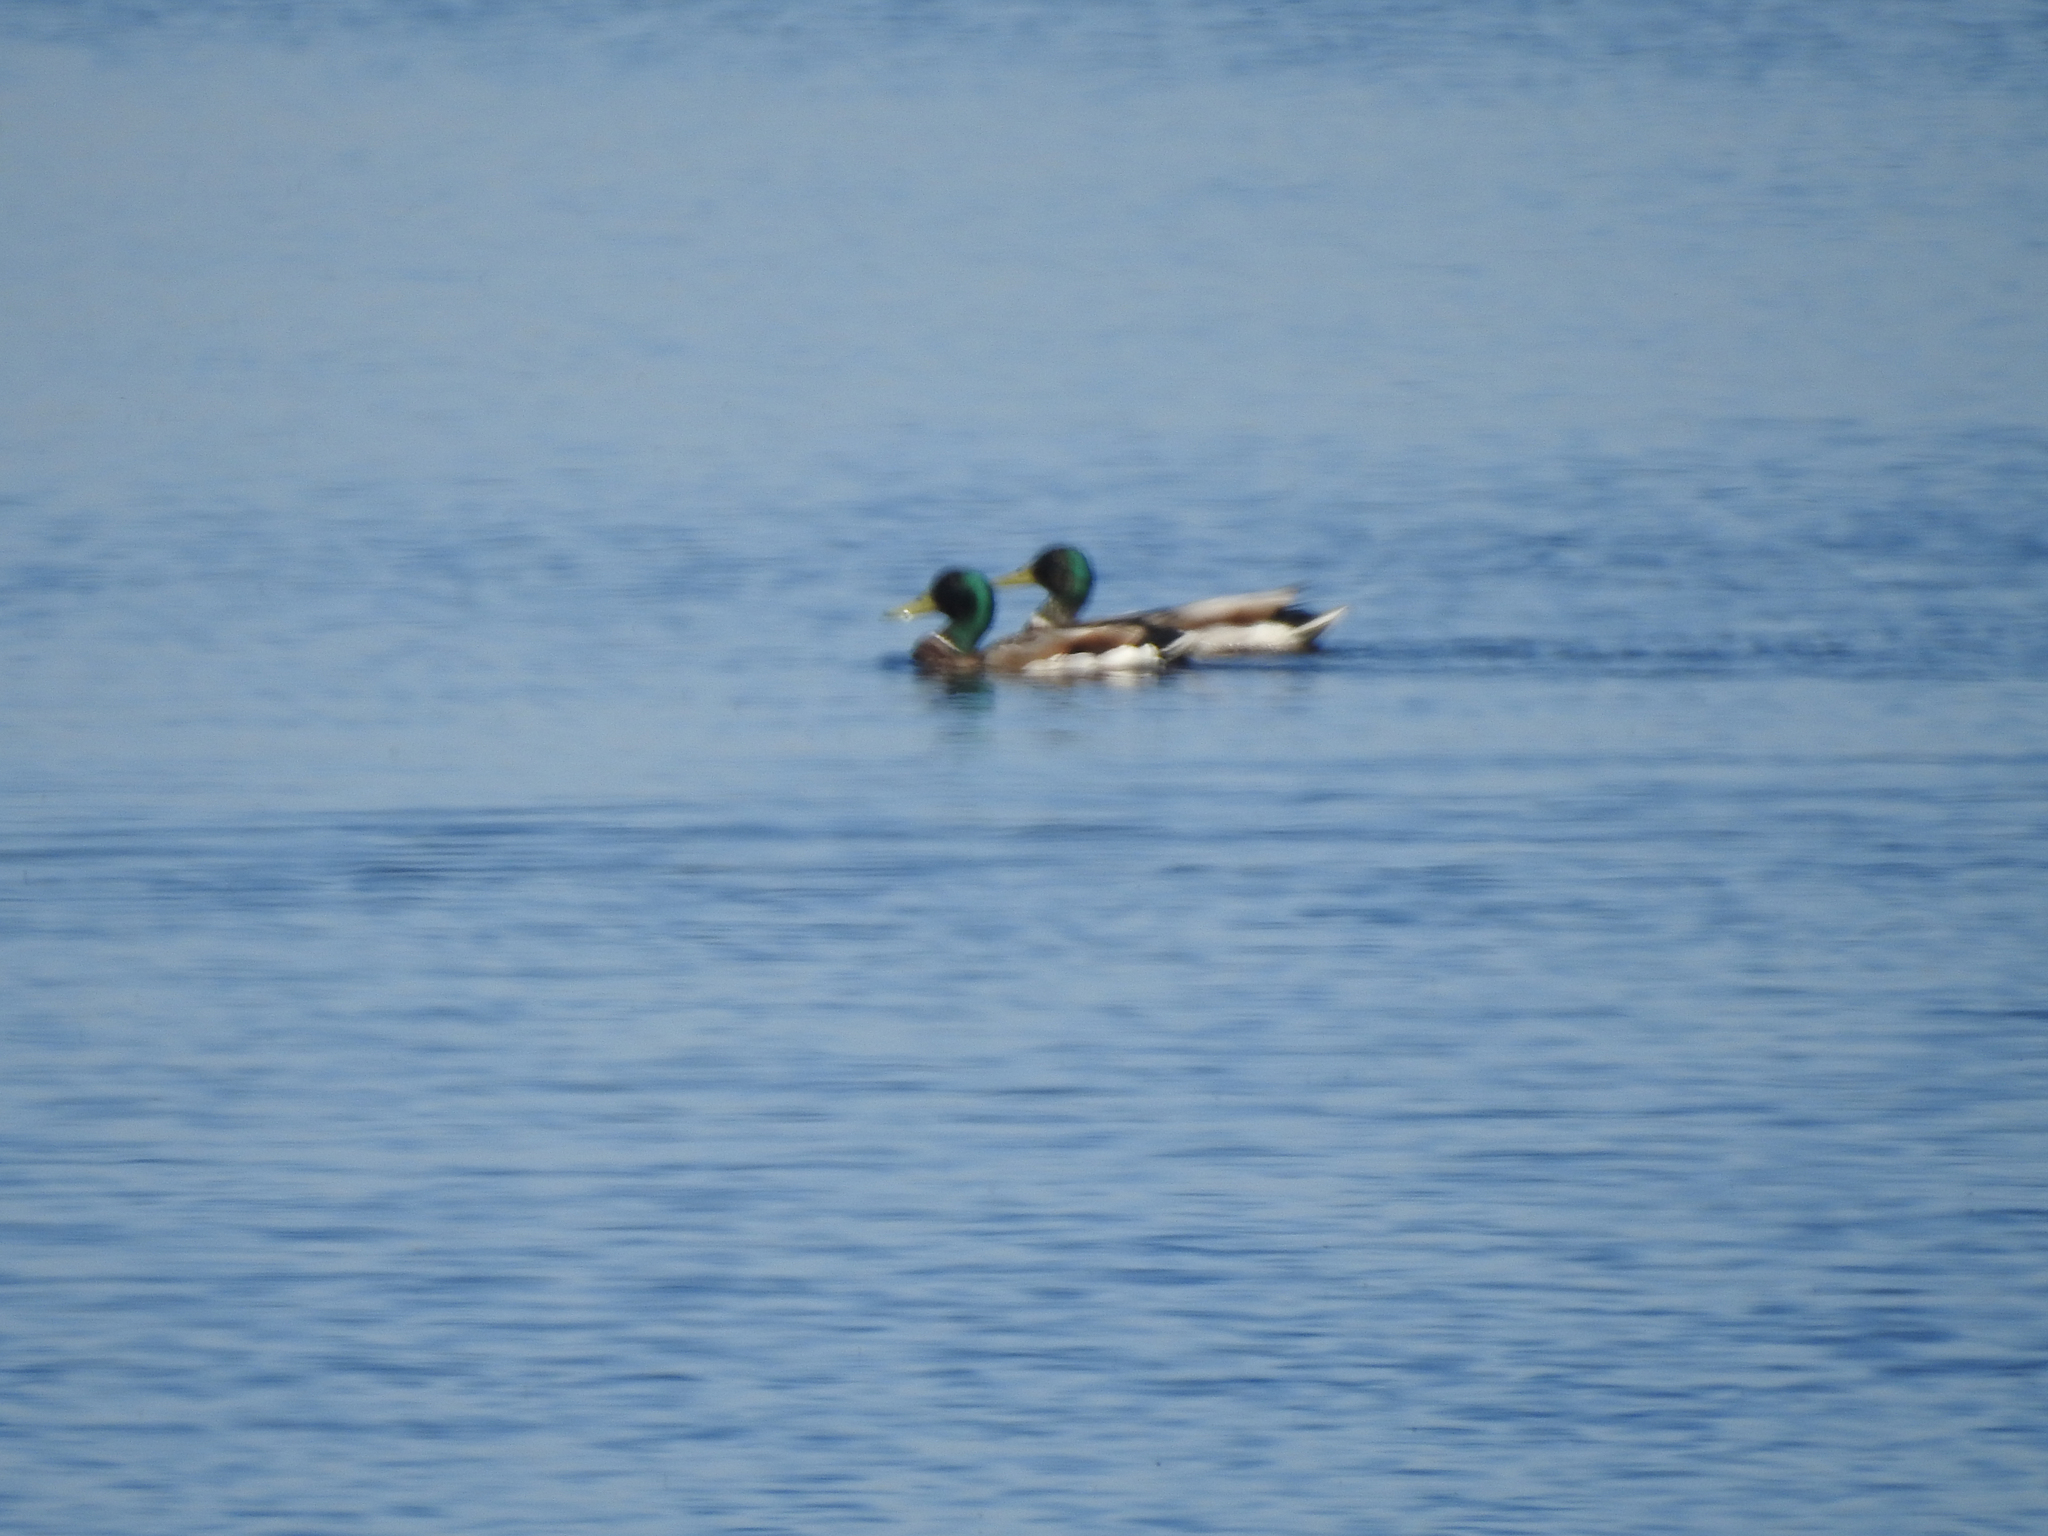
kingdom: Animalia
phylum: Chordata
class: Aves
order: Anseriformes
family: Anatidae
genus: Anas
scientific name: Anas platyrhynchos
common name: Mallard
